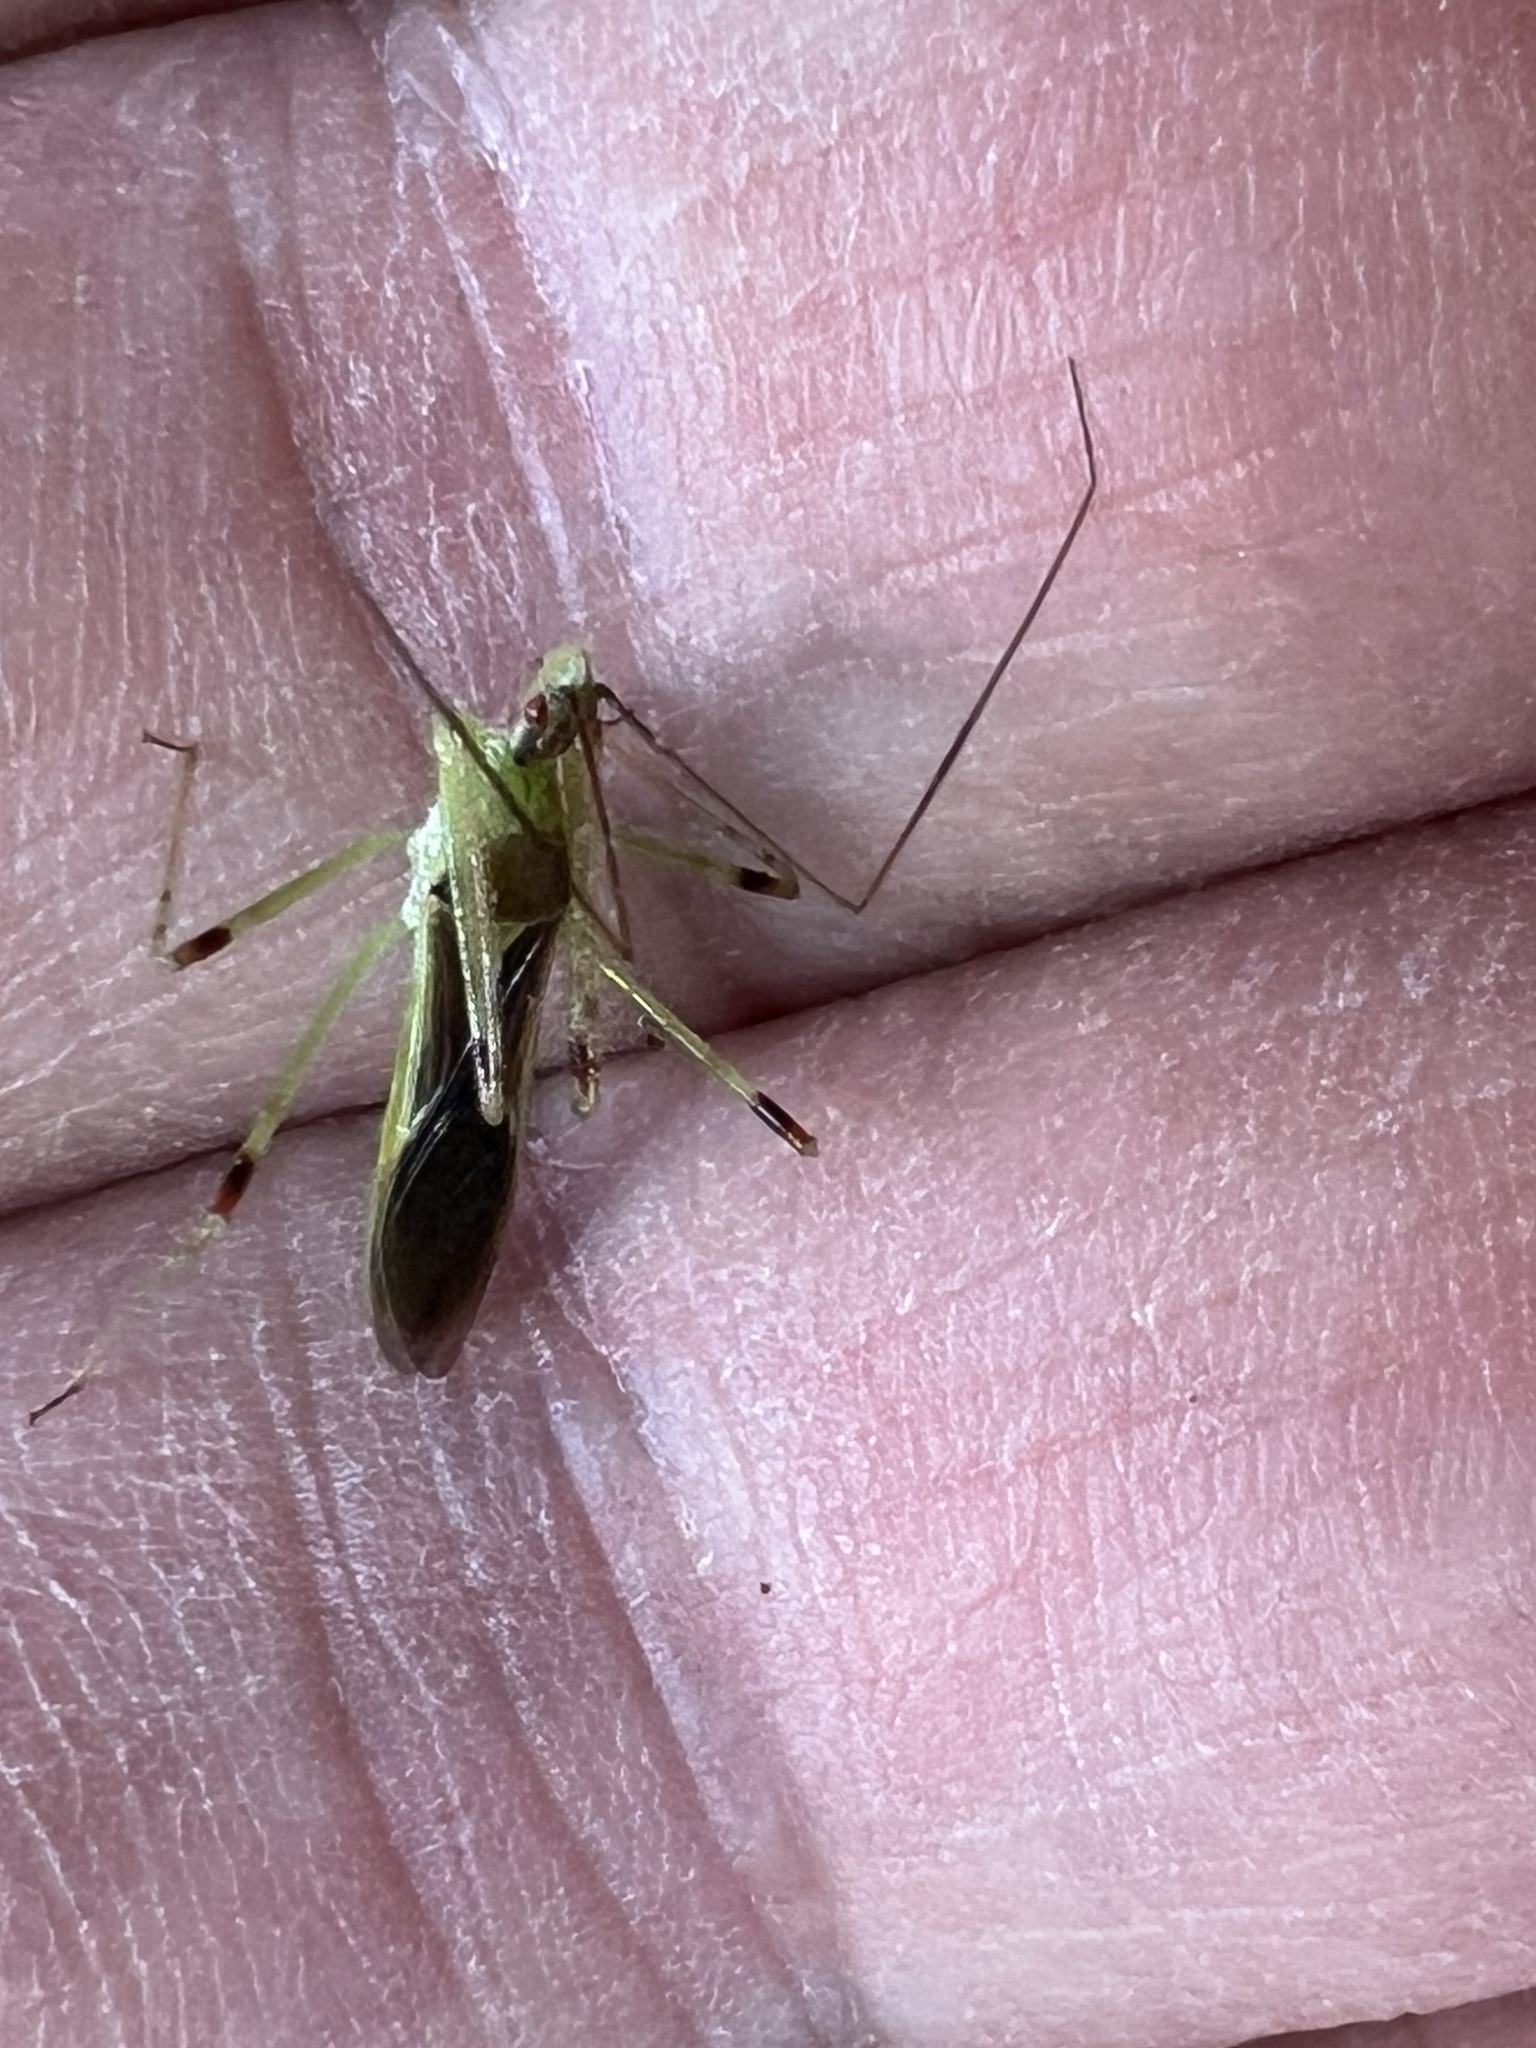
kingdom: Animalia
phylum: Arthropoda
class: Insecta
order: Hemiptera
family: Reduviidae
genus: Zelus
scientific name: Zelus luridus
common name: Pale green assassin bug
